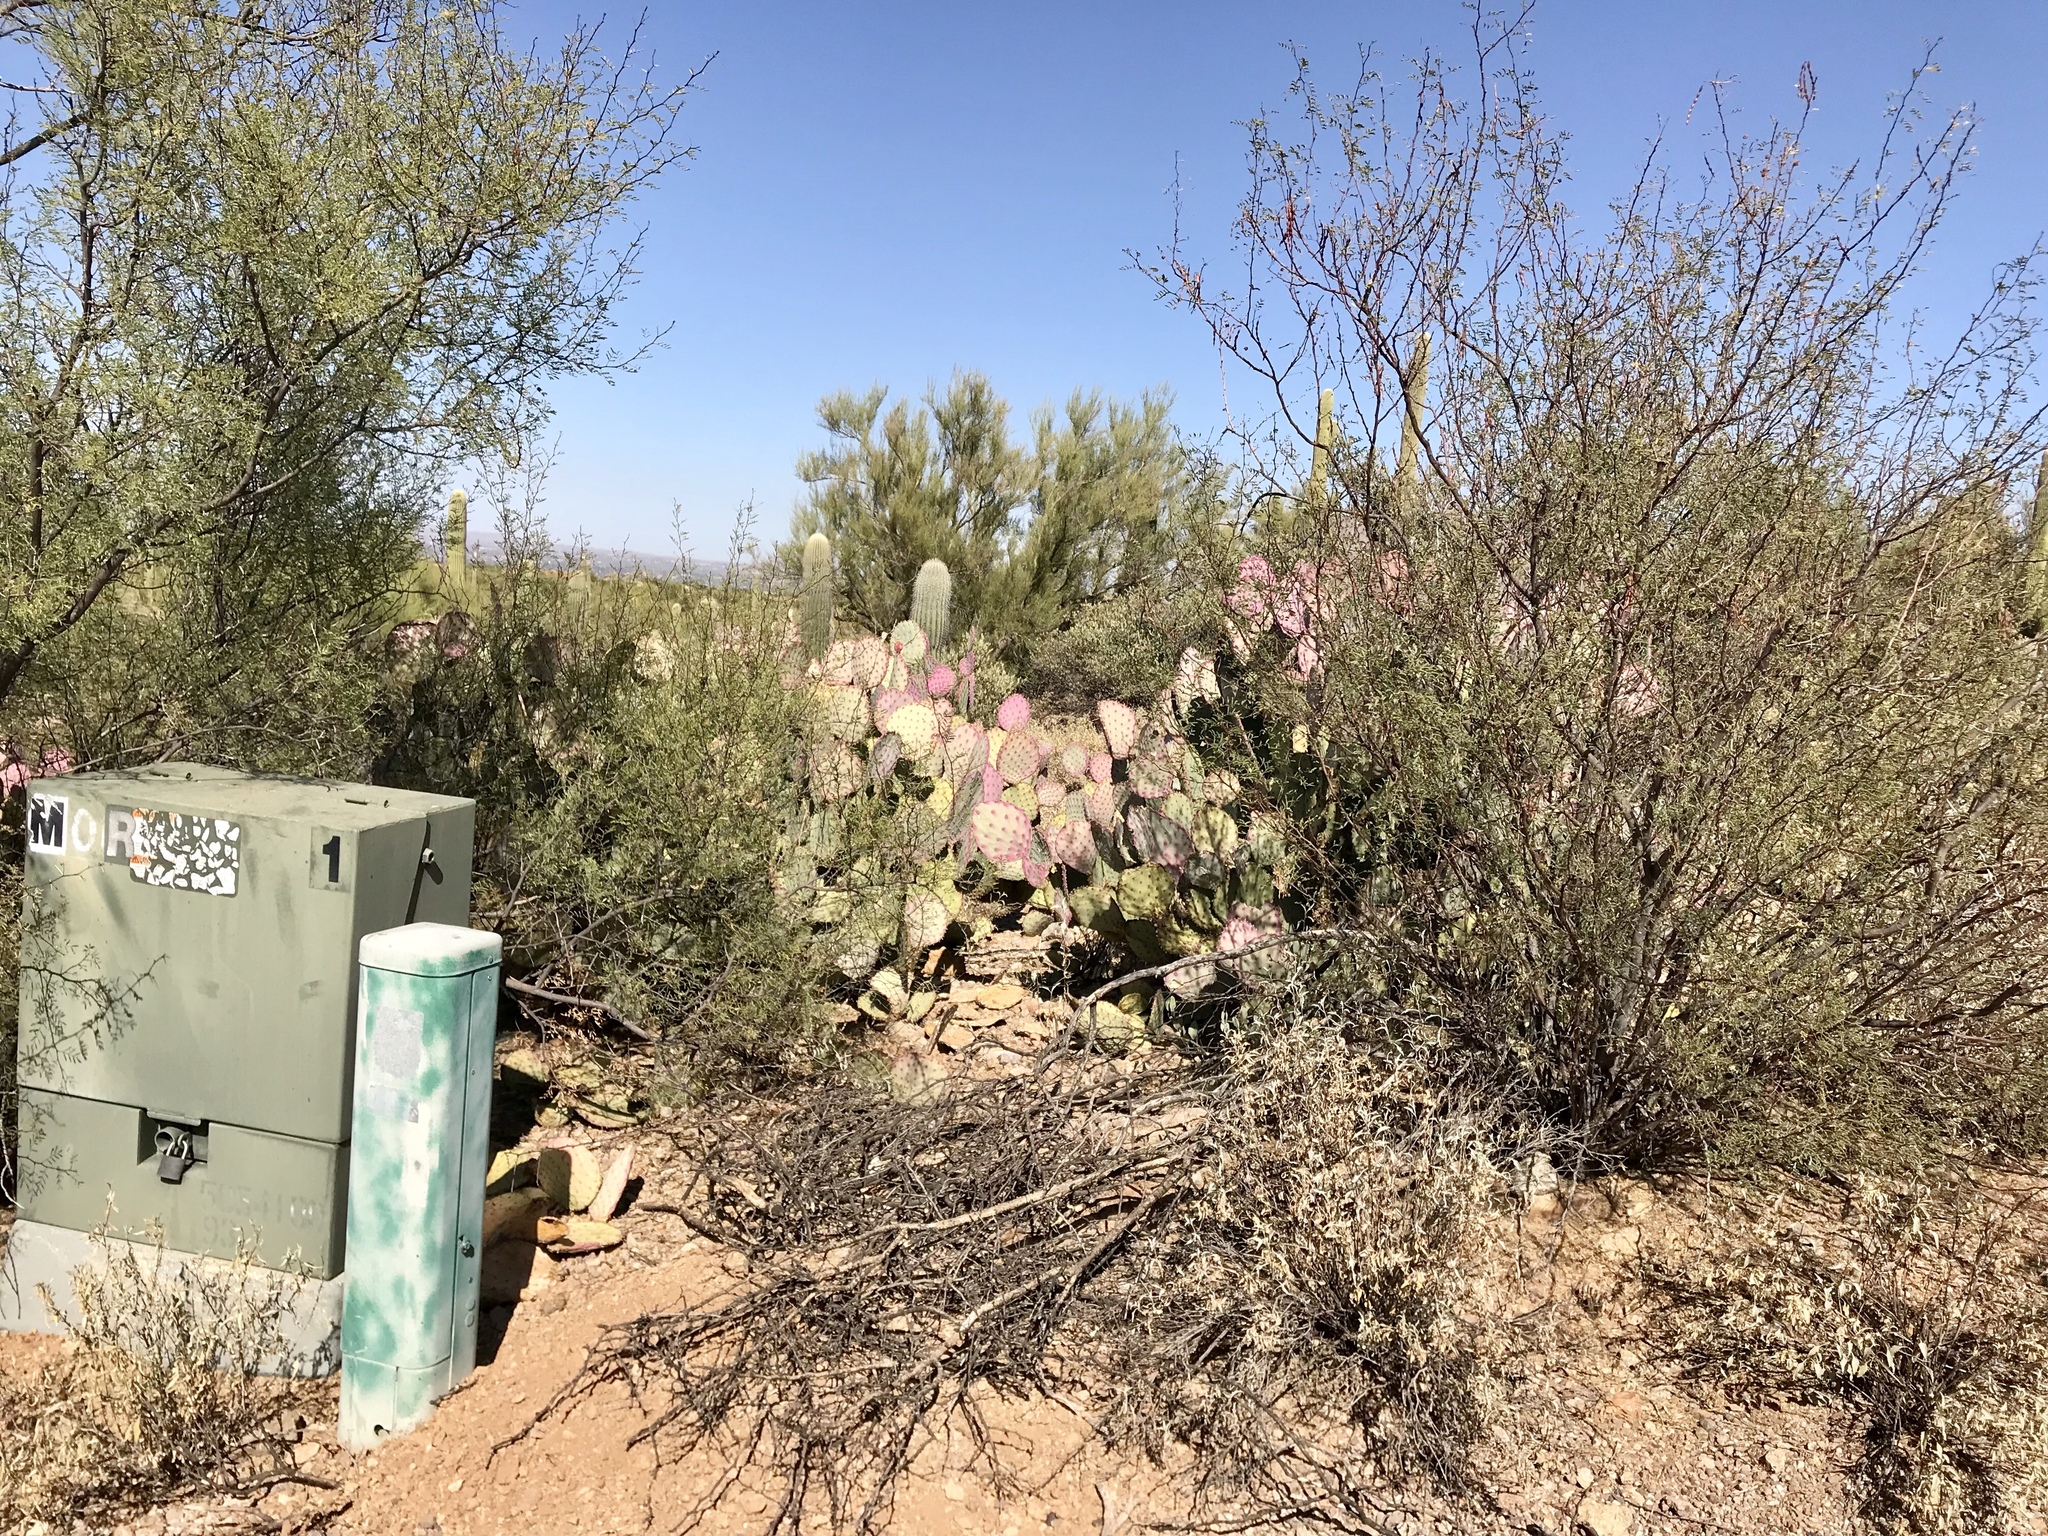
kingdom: Plantae
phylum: Tracheophyta
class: Magnoliopsida
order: Caryophyllales
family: Cactaceae
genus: Opuntia
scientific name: Opuntia gosseliniana
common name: Violet prickly-pear
